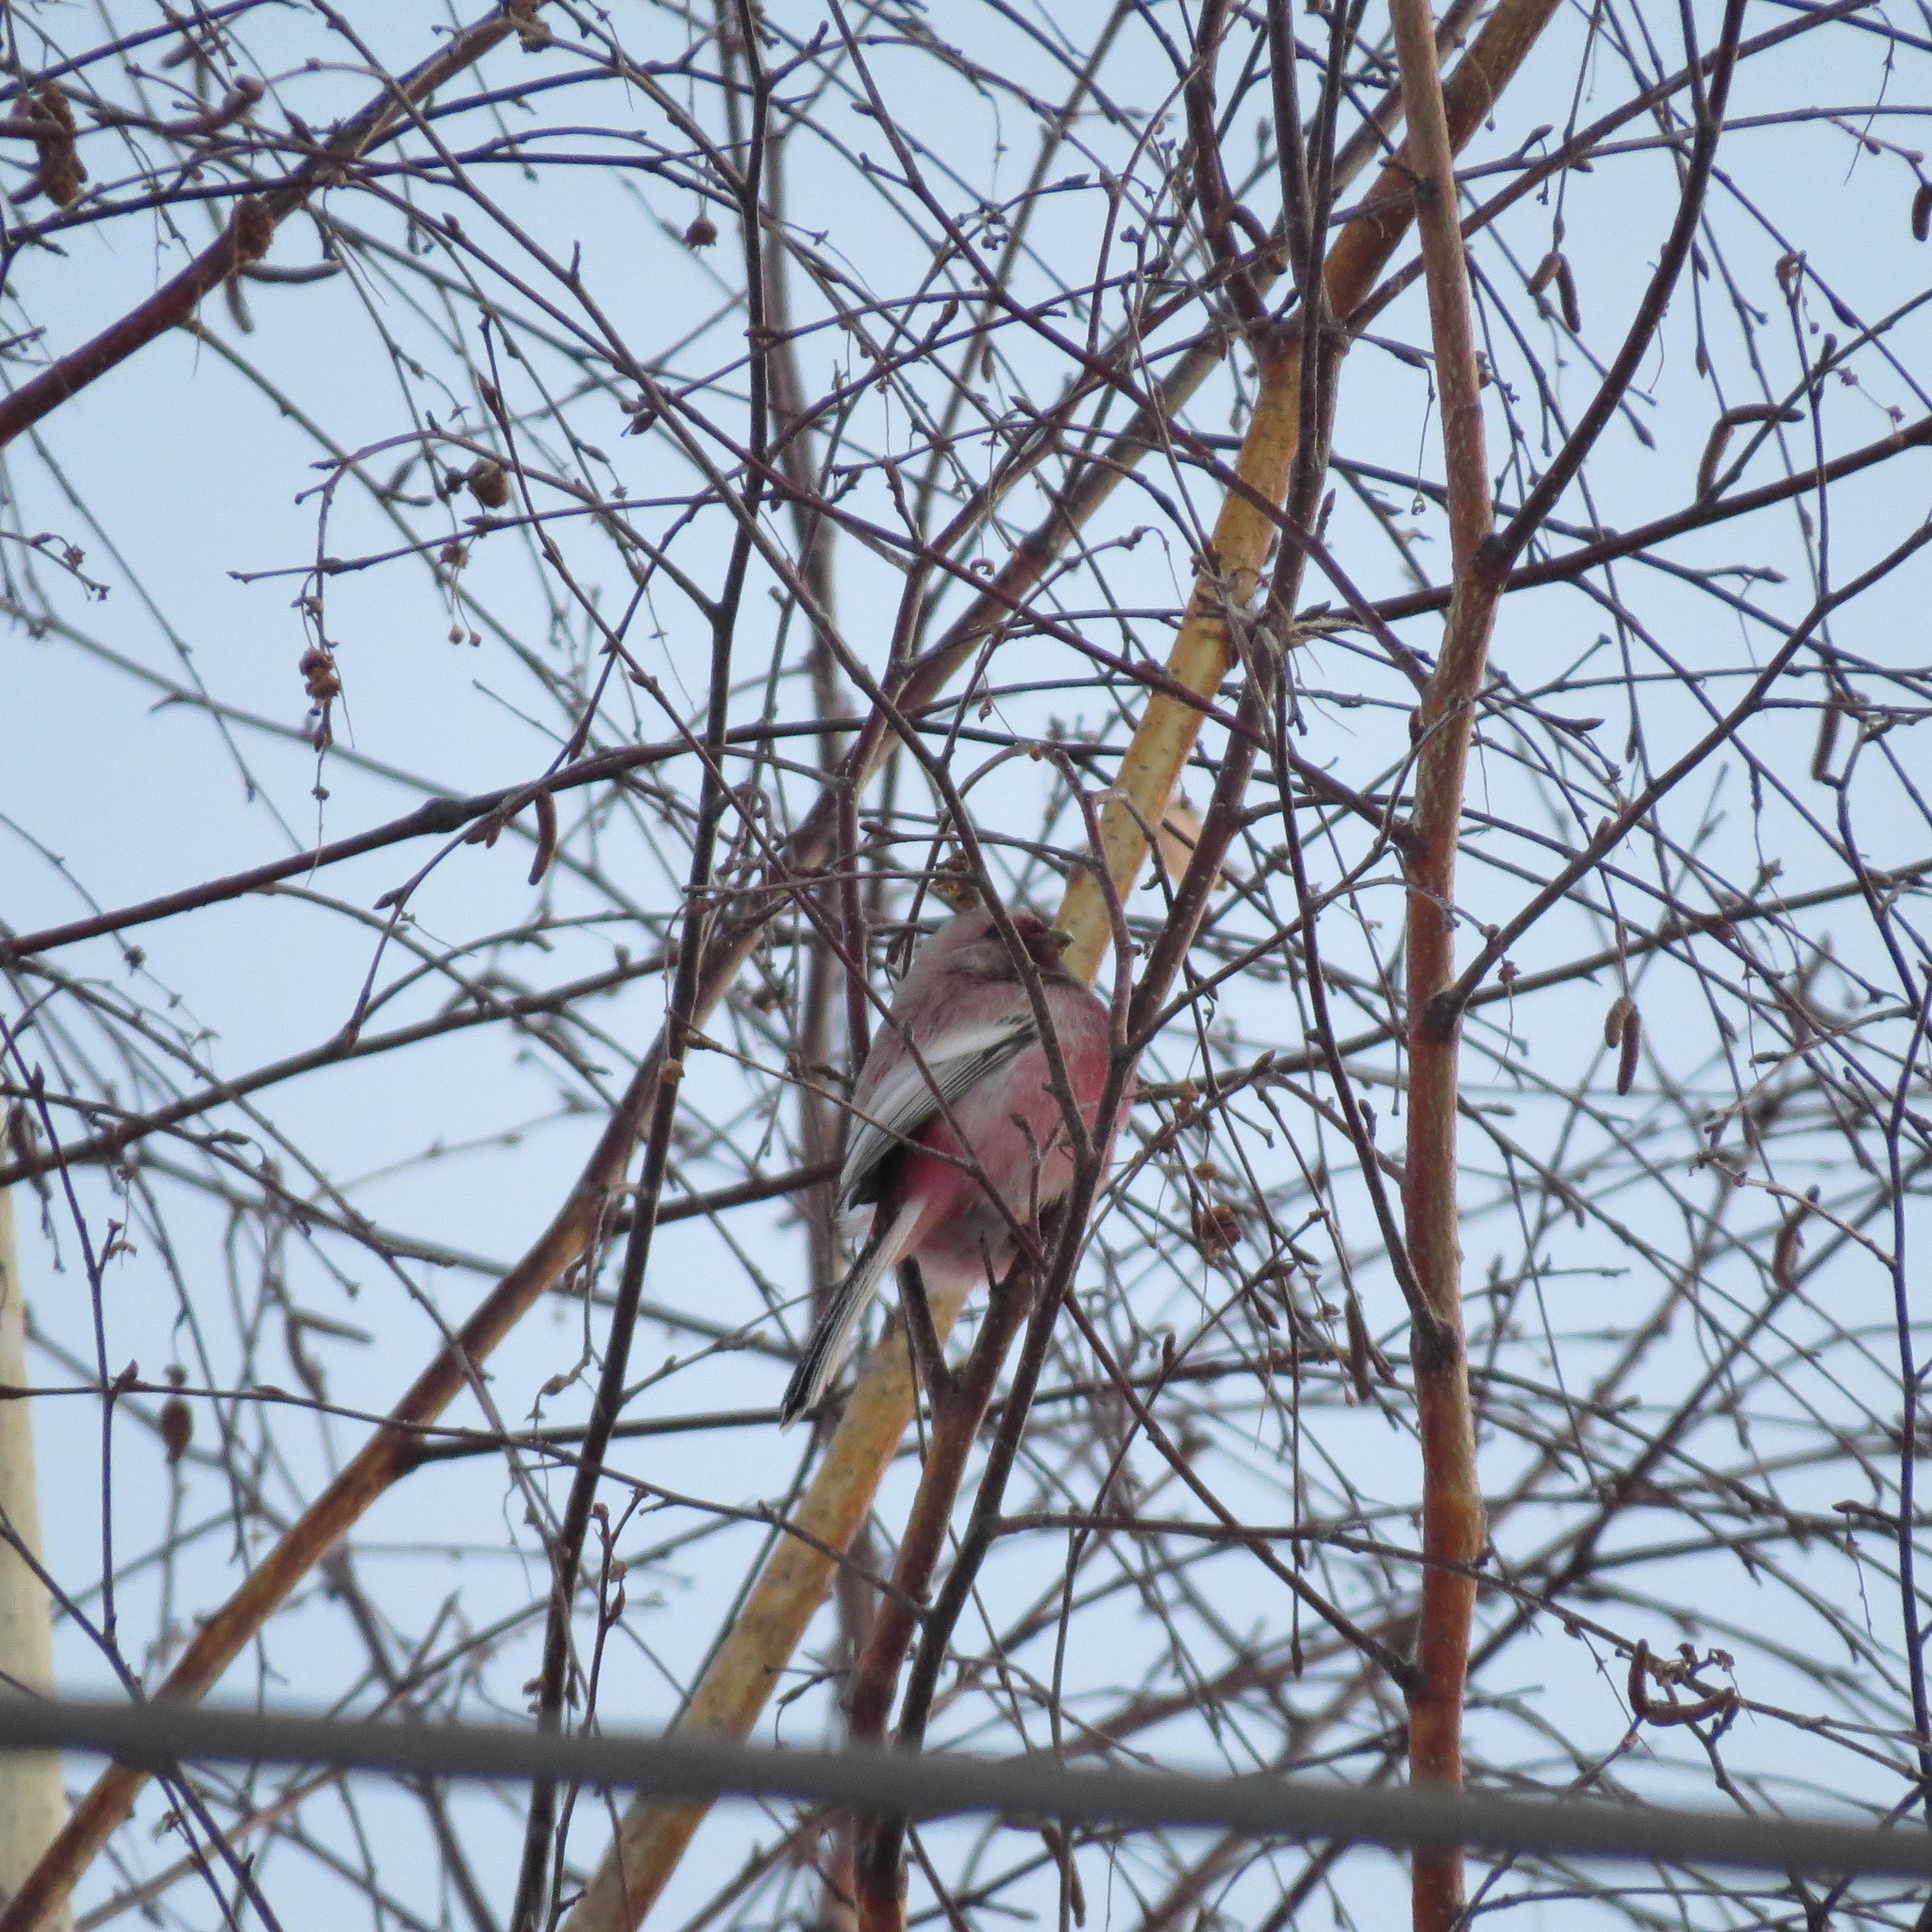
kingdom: Animalia
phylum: Chordata
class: Aves
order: Passeriformes
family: Fringillidae
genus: Carpodacus
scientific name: Carpodacus sibiricus
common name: Long-tailed rosefinch
